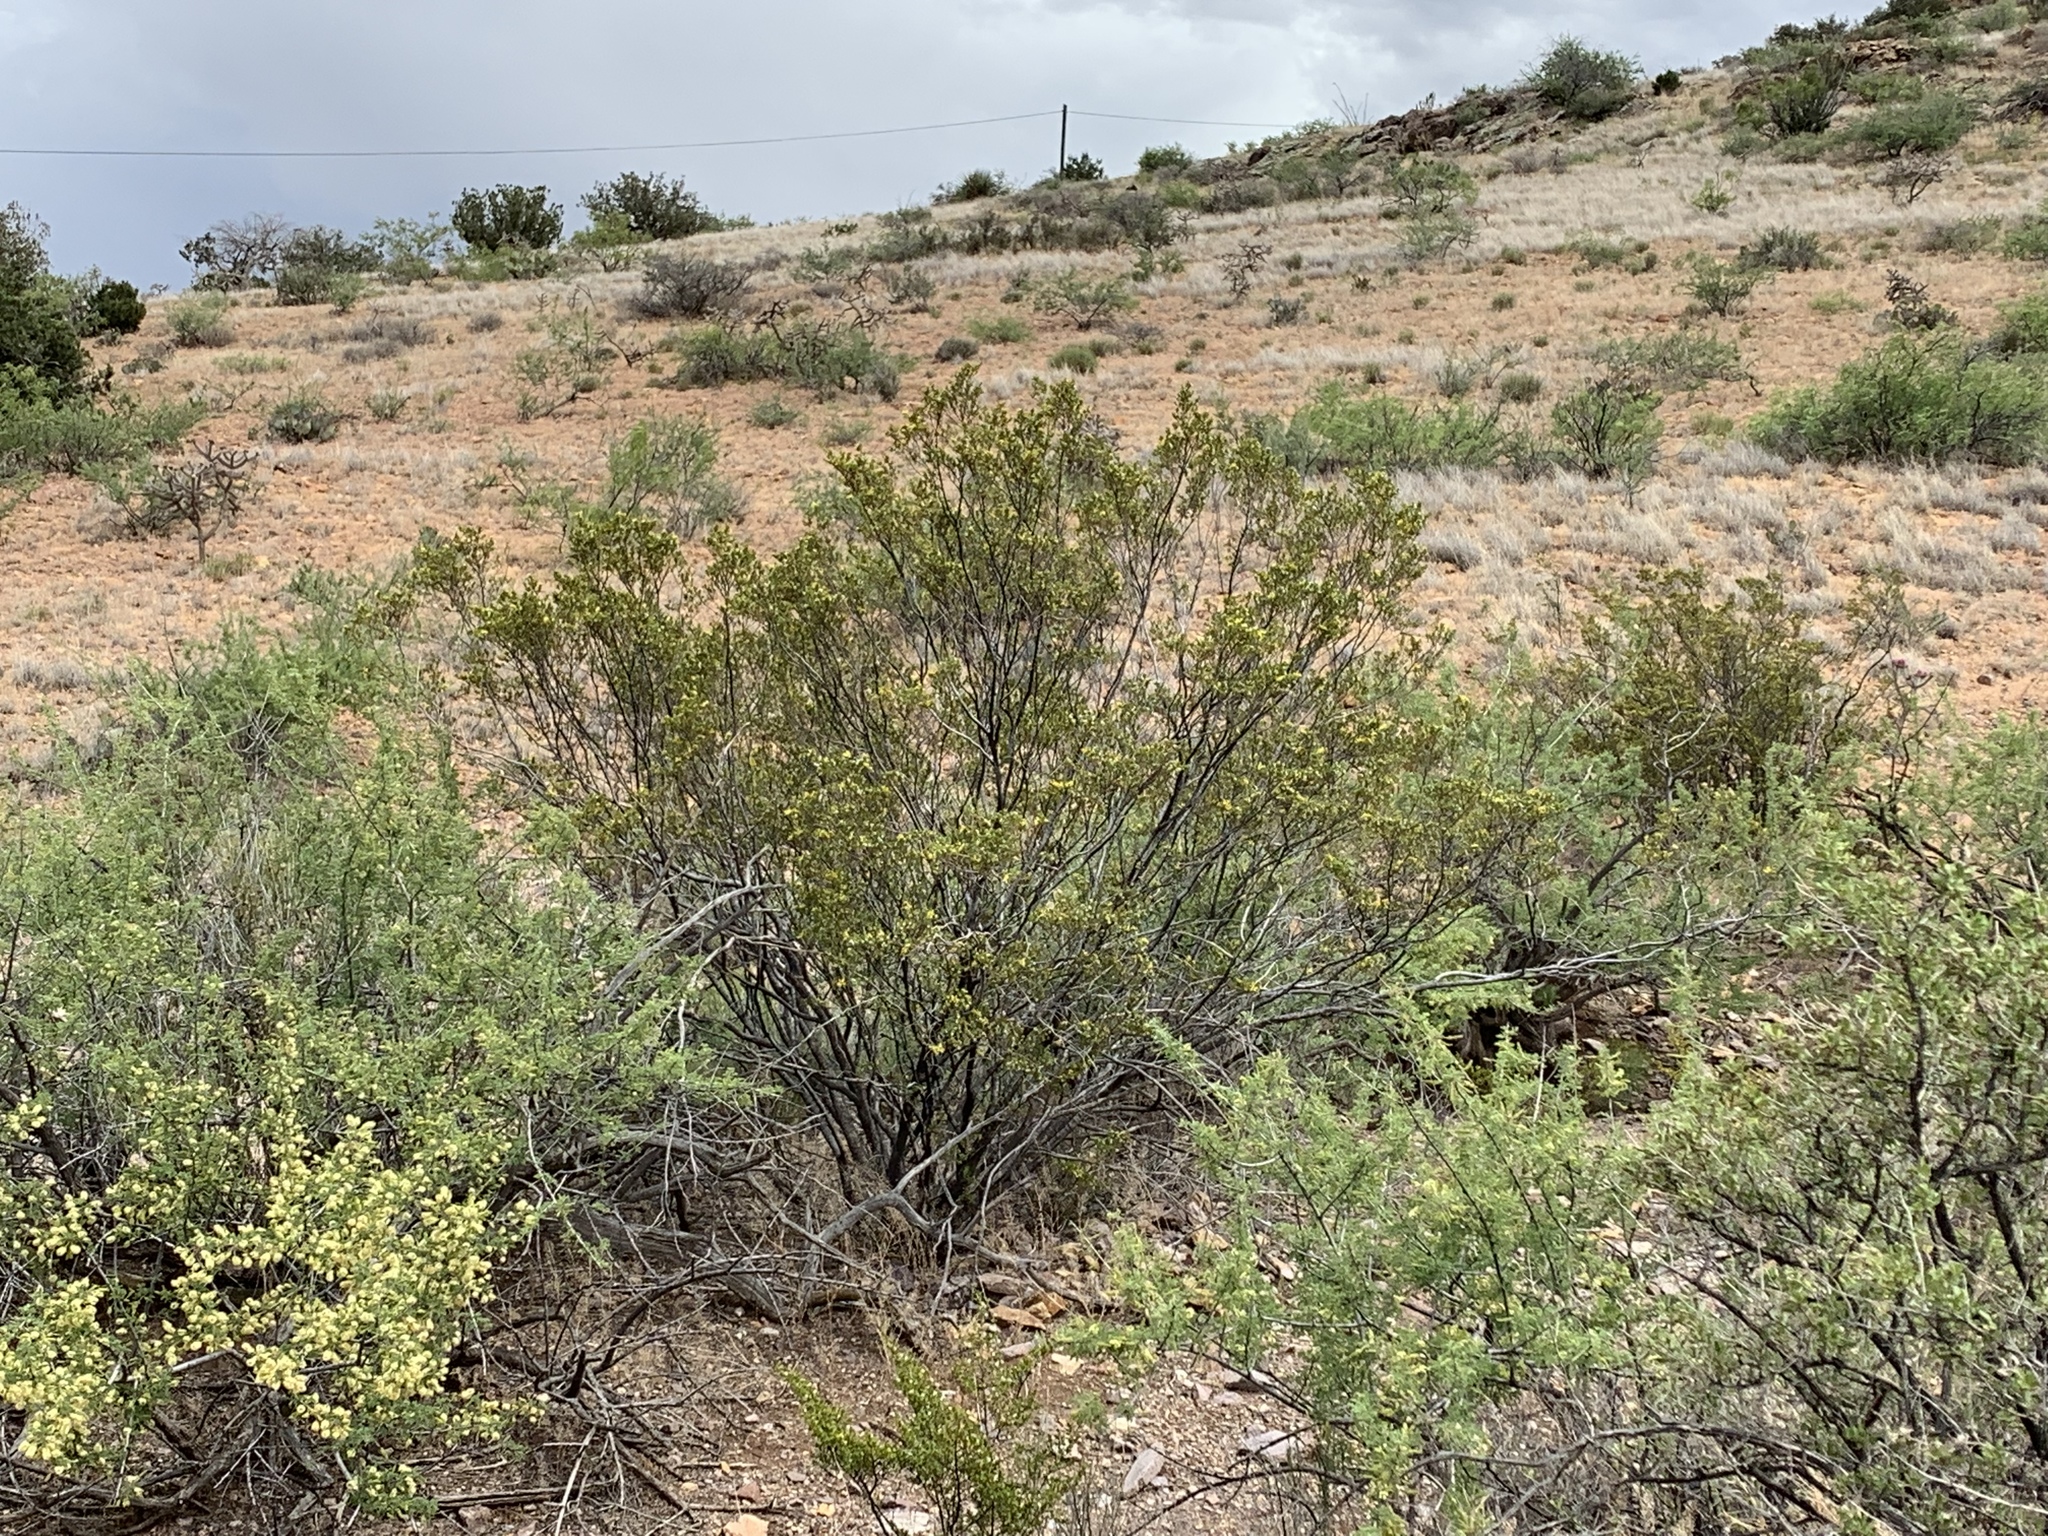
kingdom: Plantae
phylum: Tracheophyta
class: Magnoliopsida
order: Zygophyllales
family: Zygophyllaceae
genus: Larrea
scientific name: Larrea tridentata
